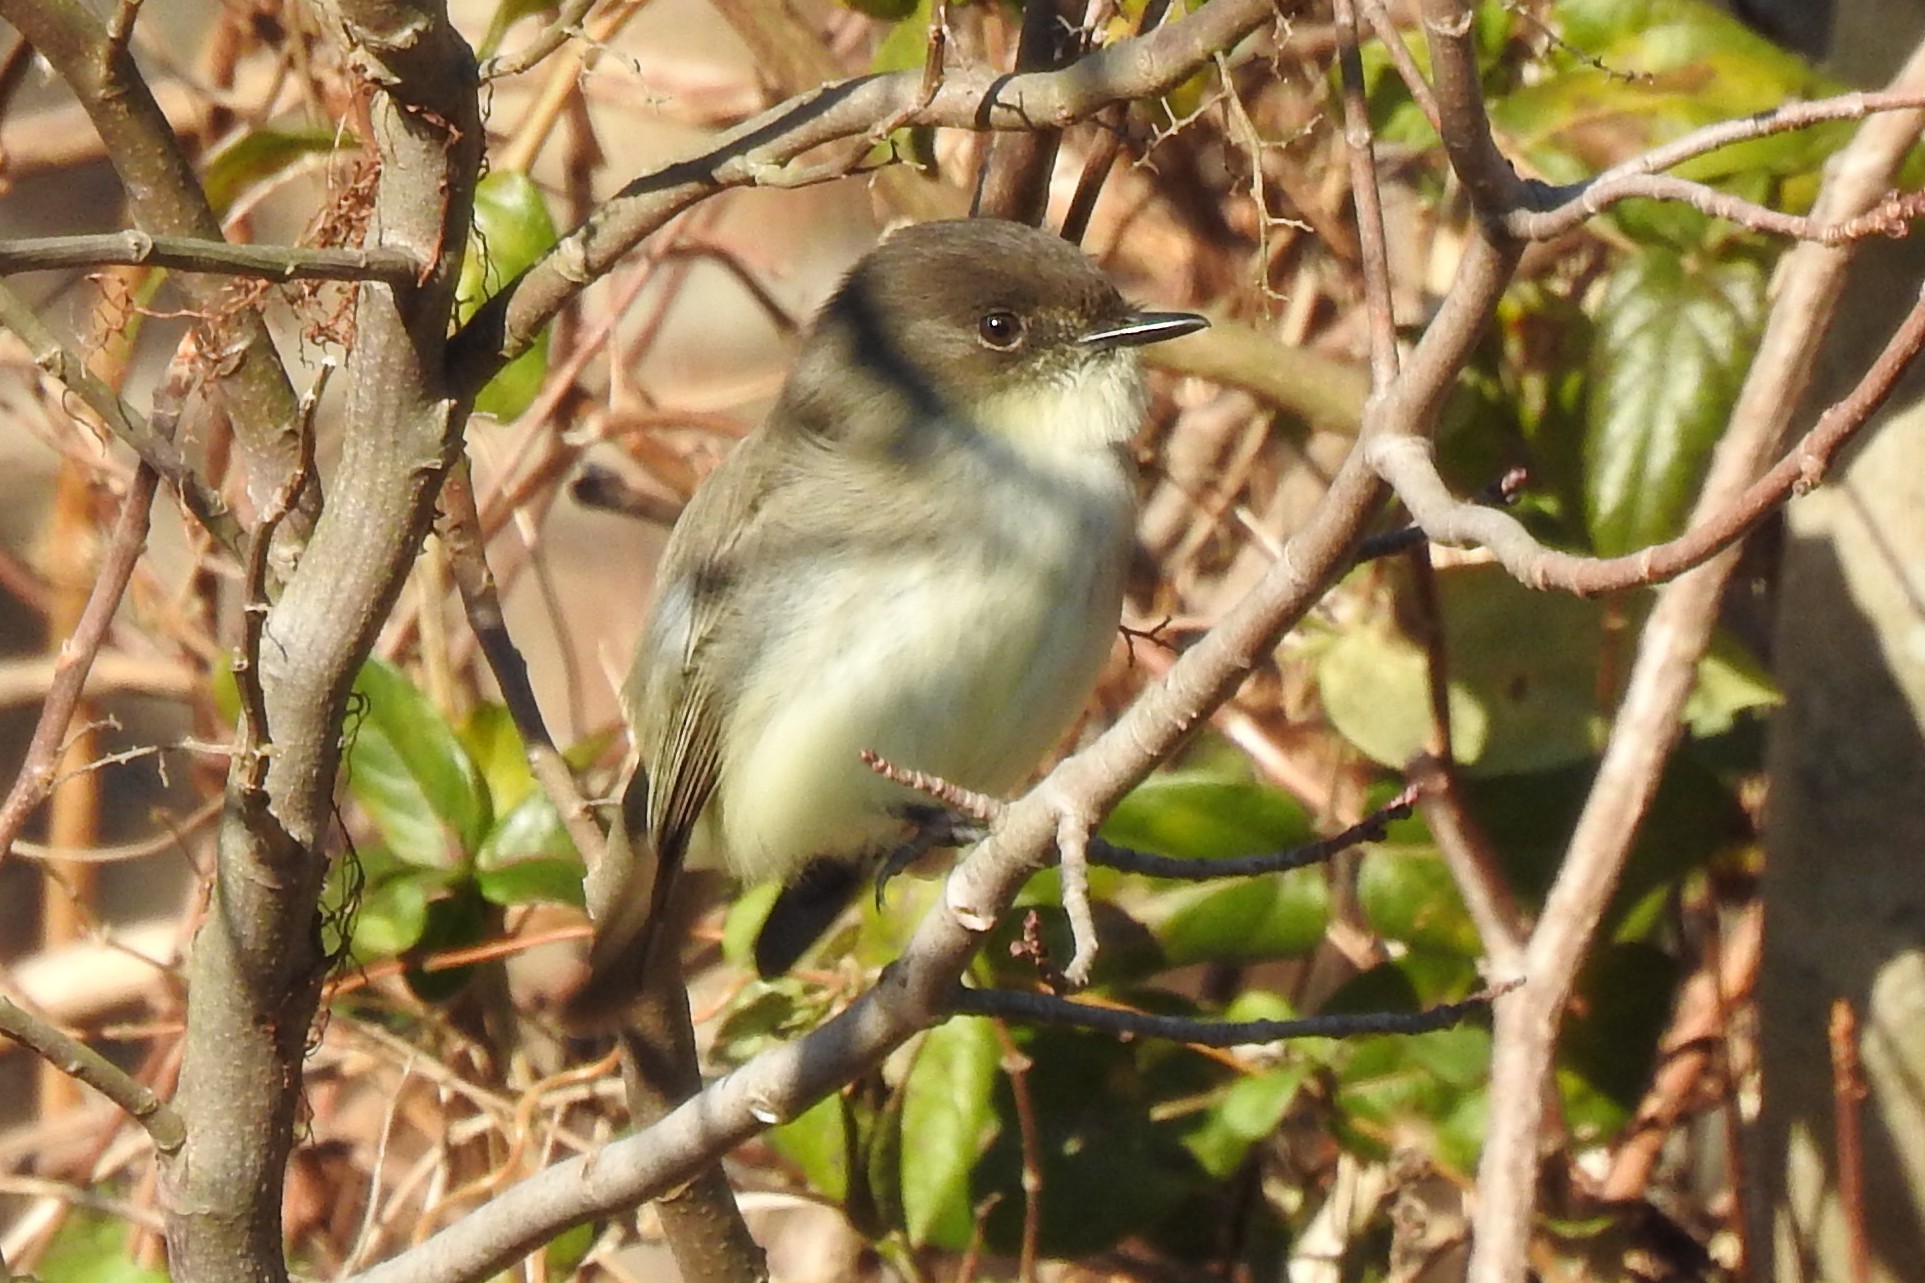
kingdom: Animalia
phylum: Chordata
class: Aves
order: Passeriformes
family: Tyrannidae
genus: Sayornis
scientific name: Sayornis phoebe
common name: Eastern phoebe
